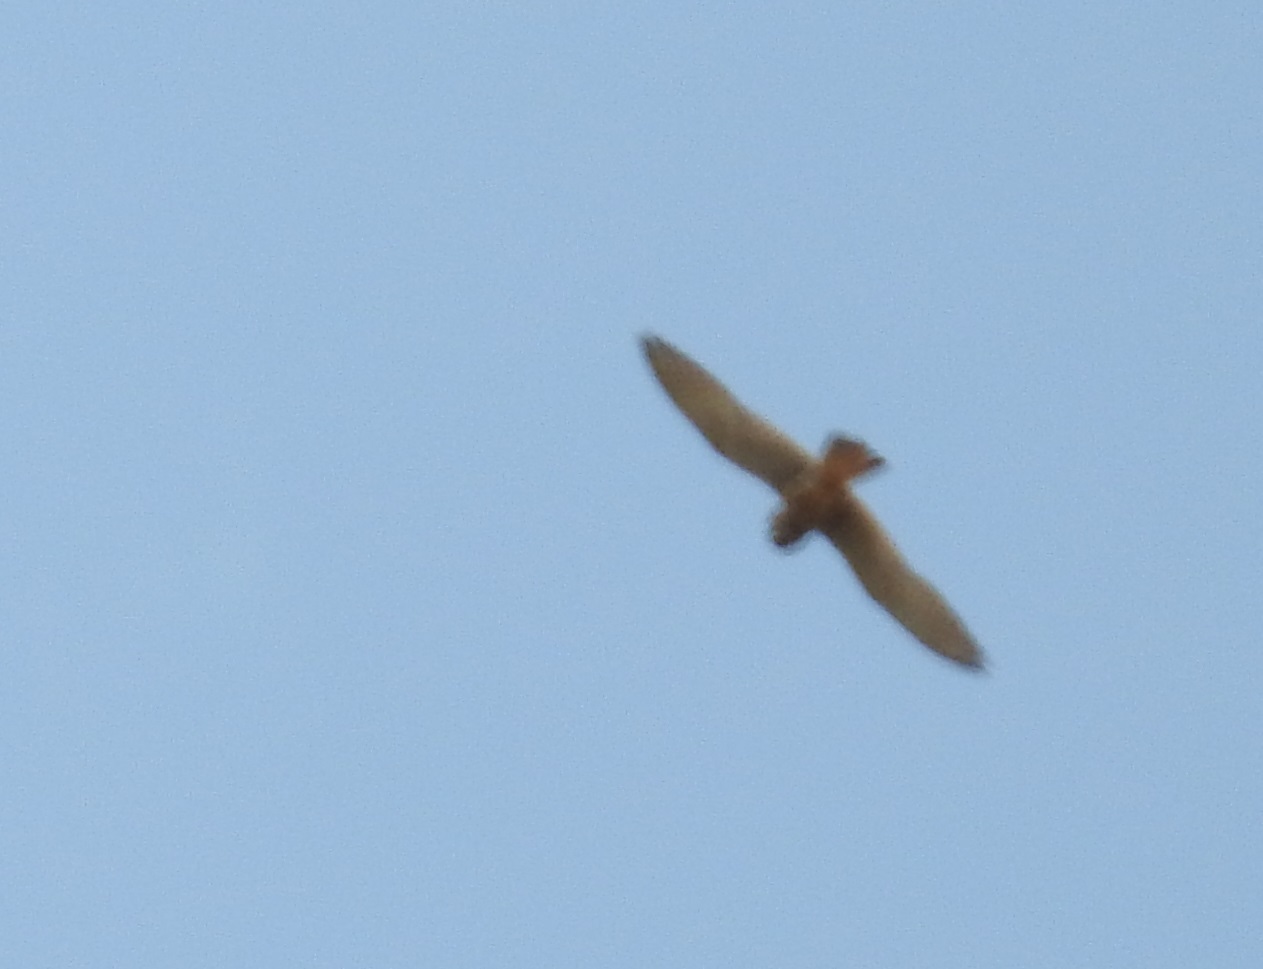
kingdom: Animalia
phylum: Chordata
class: Aves
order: Falconiformes
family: Falconidae
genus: Falco
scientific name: Falco tinnunculus
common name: Common kestrel
